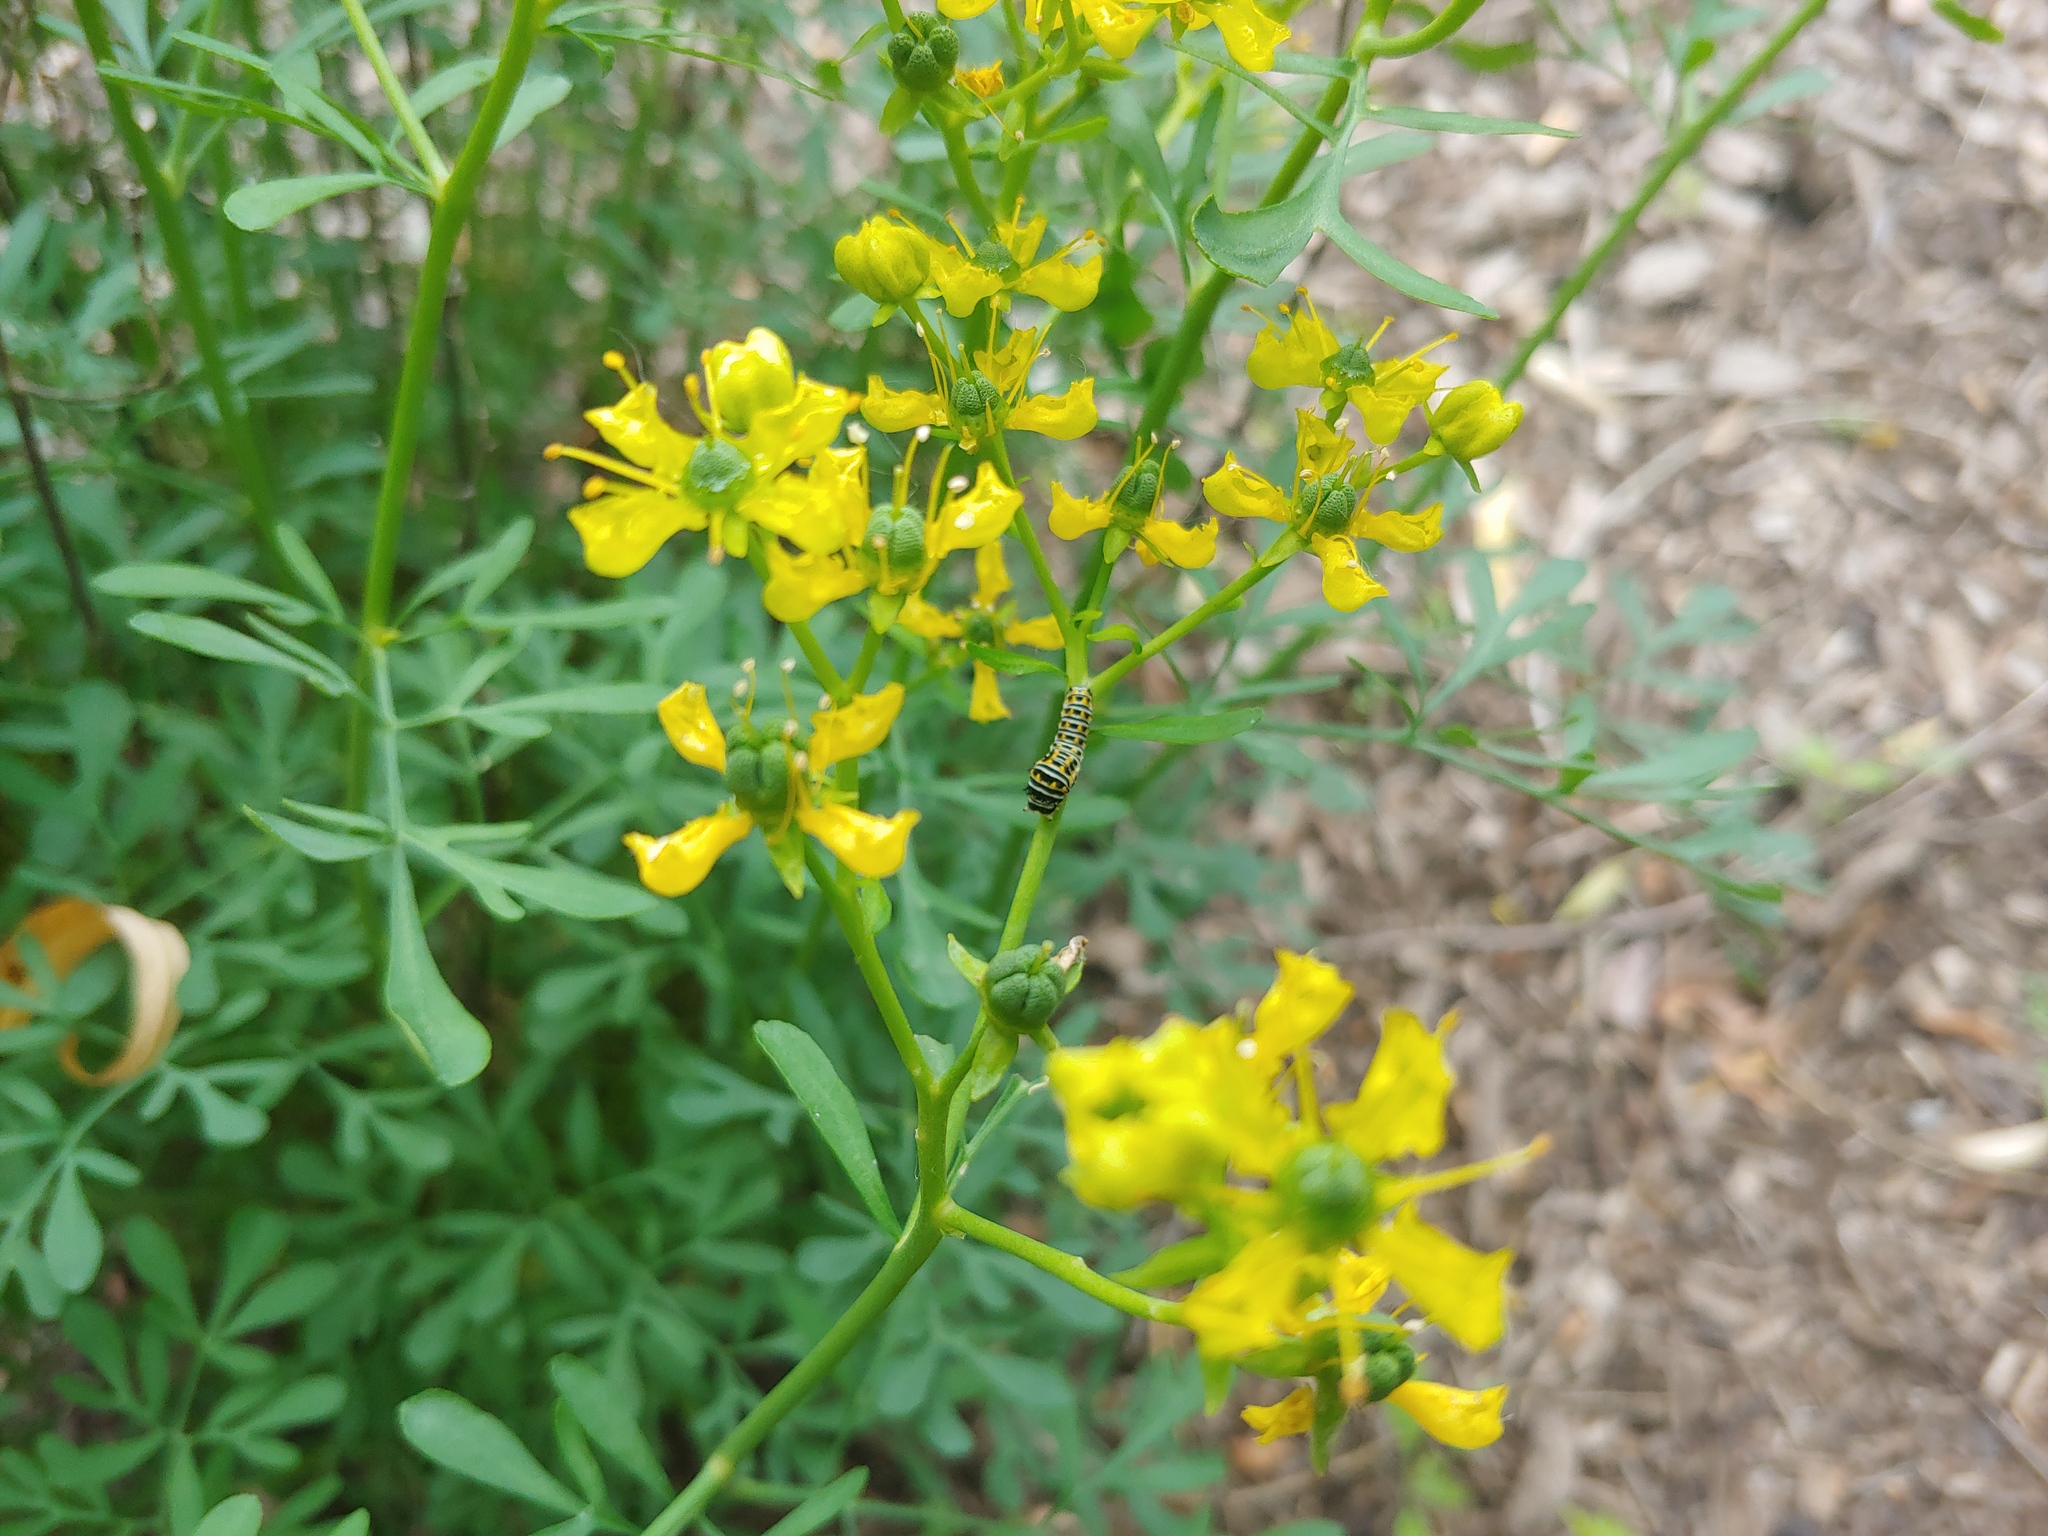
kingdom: Animalia
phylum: Arthropoda
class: Insecta
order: Lepidoptera
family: Papilionidae
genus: Papilio
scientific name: Papilio polyxenes
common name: Black swallowtail
